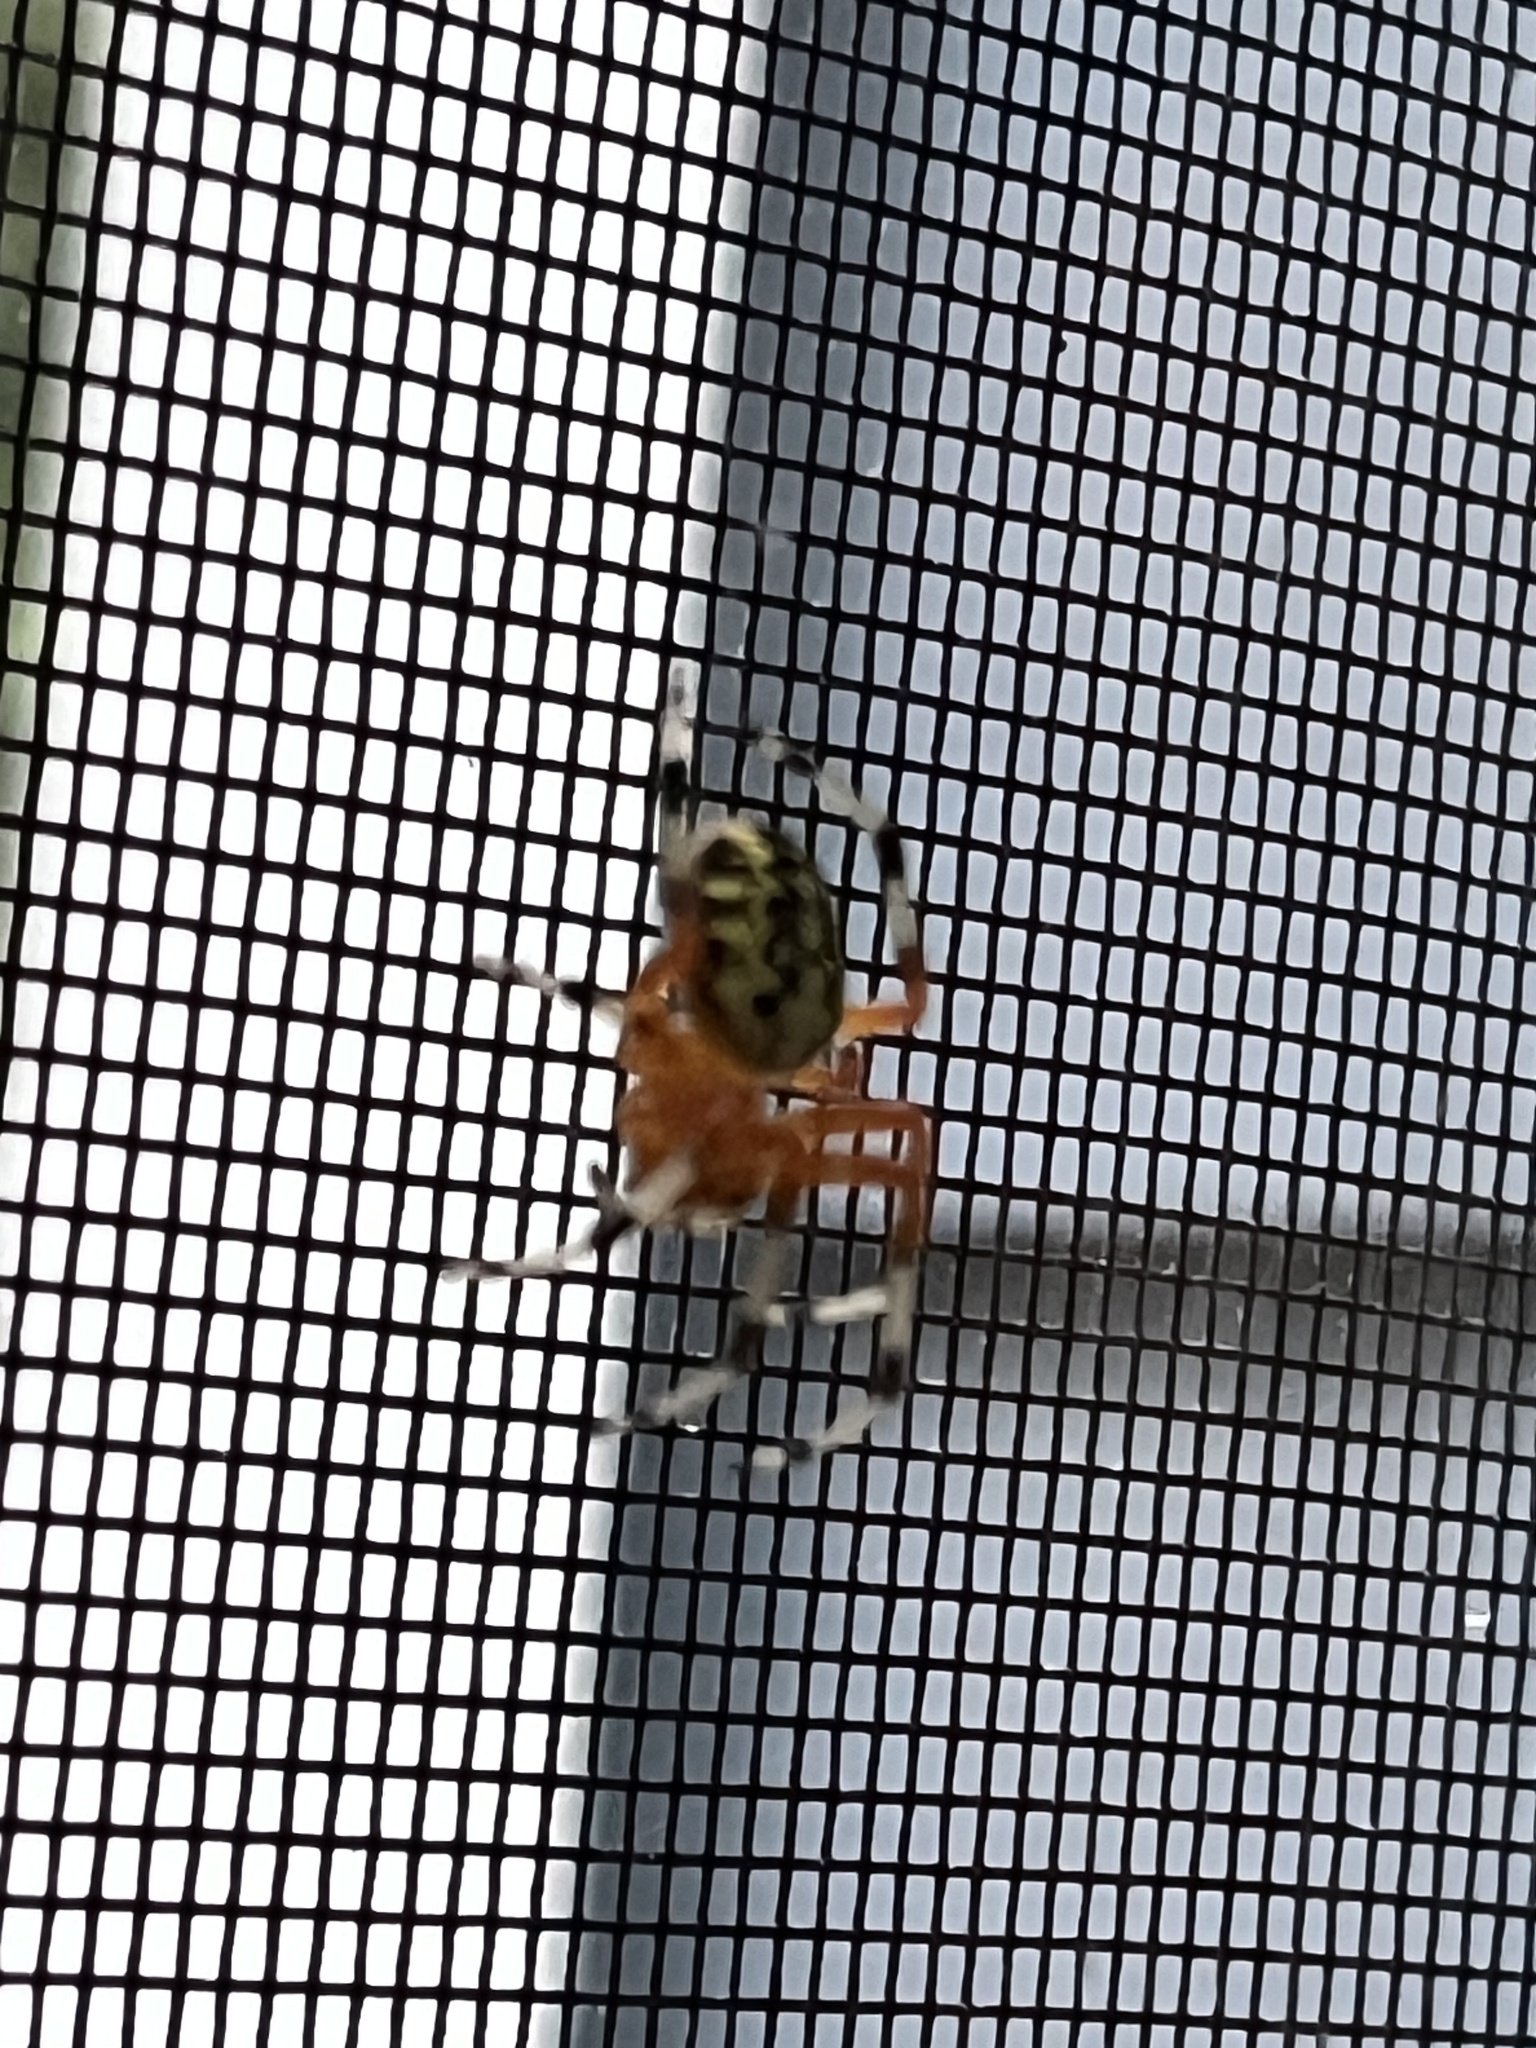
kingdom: Animalia
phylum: Arthropoda
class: Arachnida
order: Araneae
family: Araneidae
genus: Araneus
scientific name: Araneus marmoreus
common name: Marbled orbweaver
